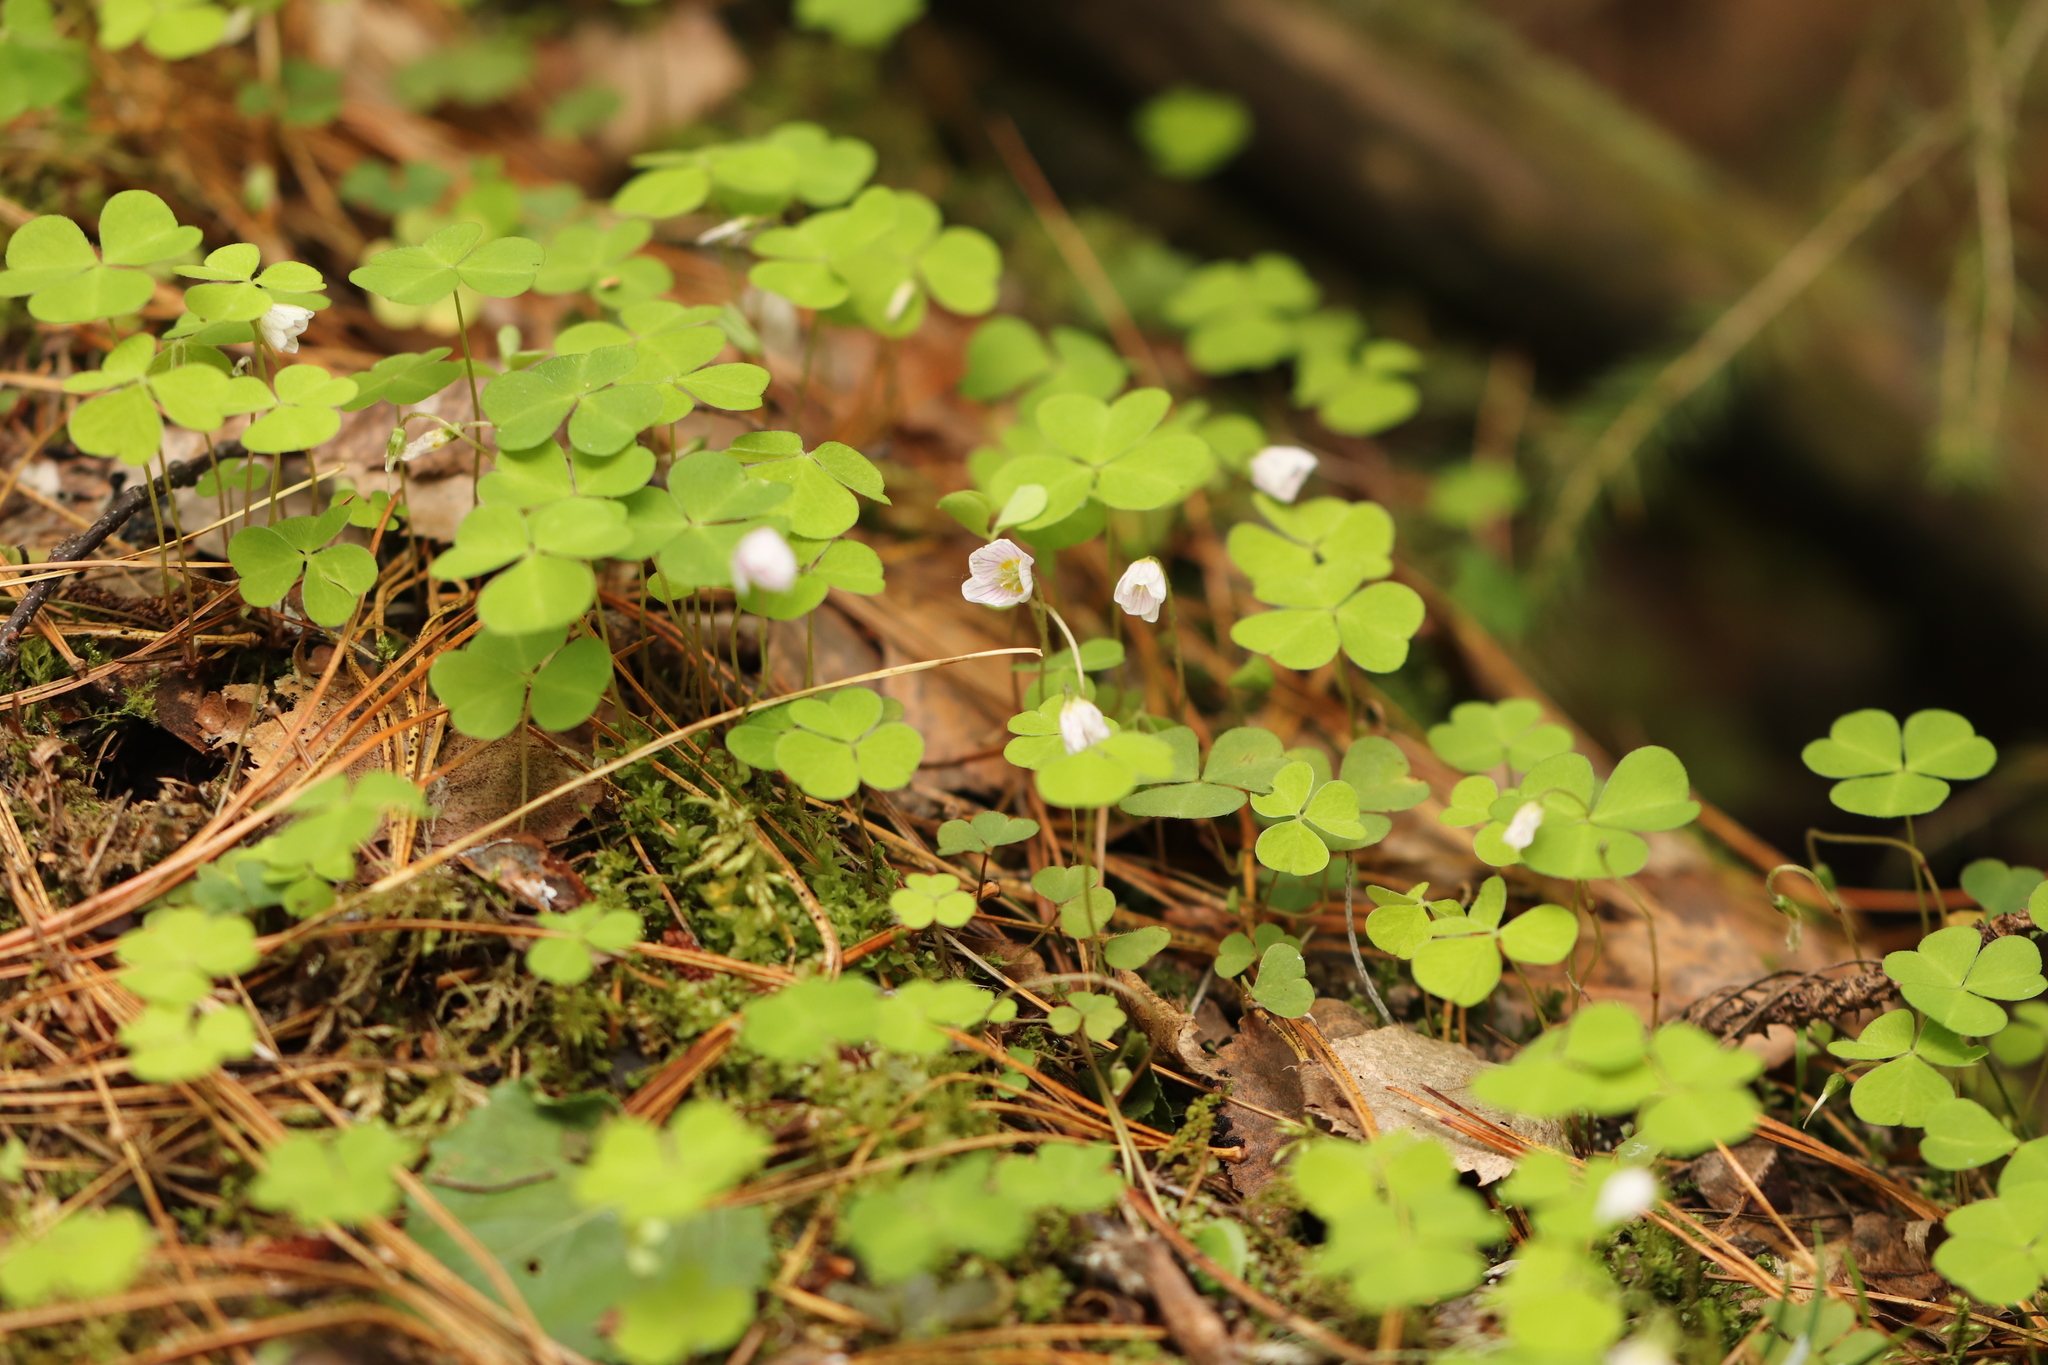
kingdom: Plantae
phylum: Tracheophyta
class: Magnoliopsida
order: Oxalidales
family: Oxalidaceae
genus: Oxalis
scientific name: Oxalis acetosella
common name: Wood-sorrel
